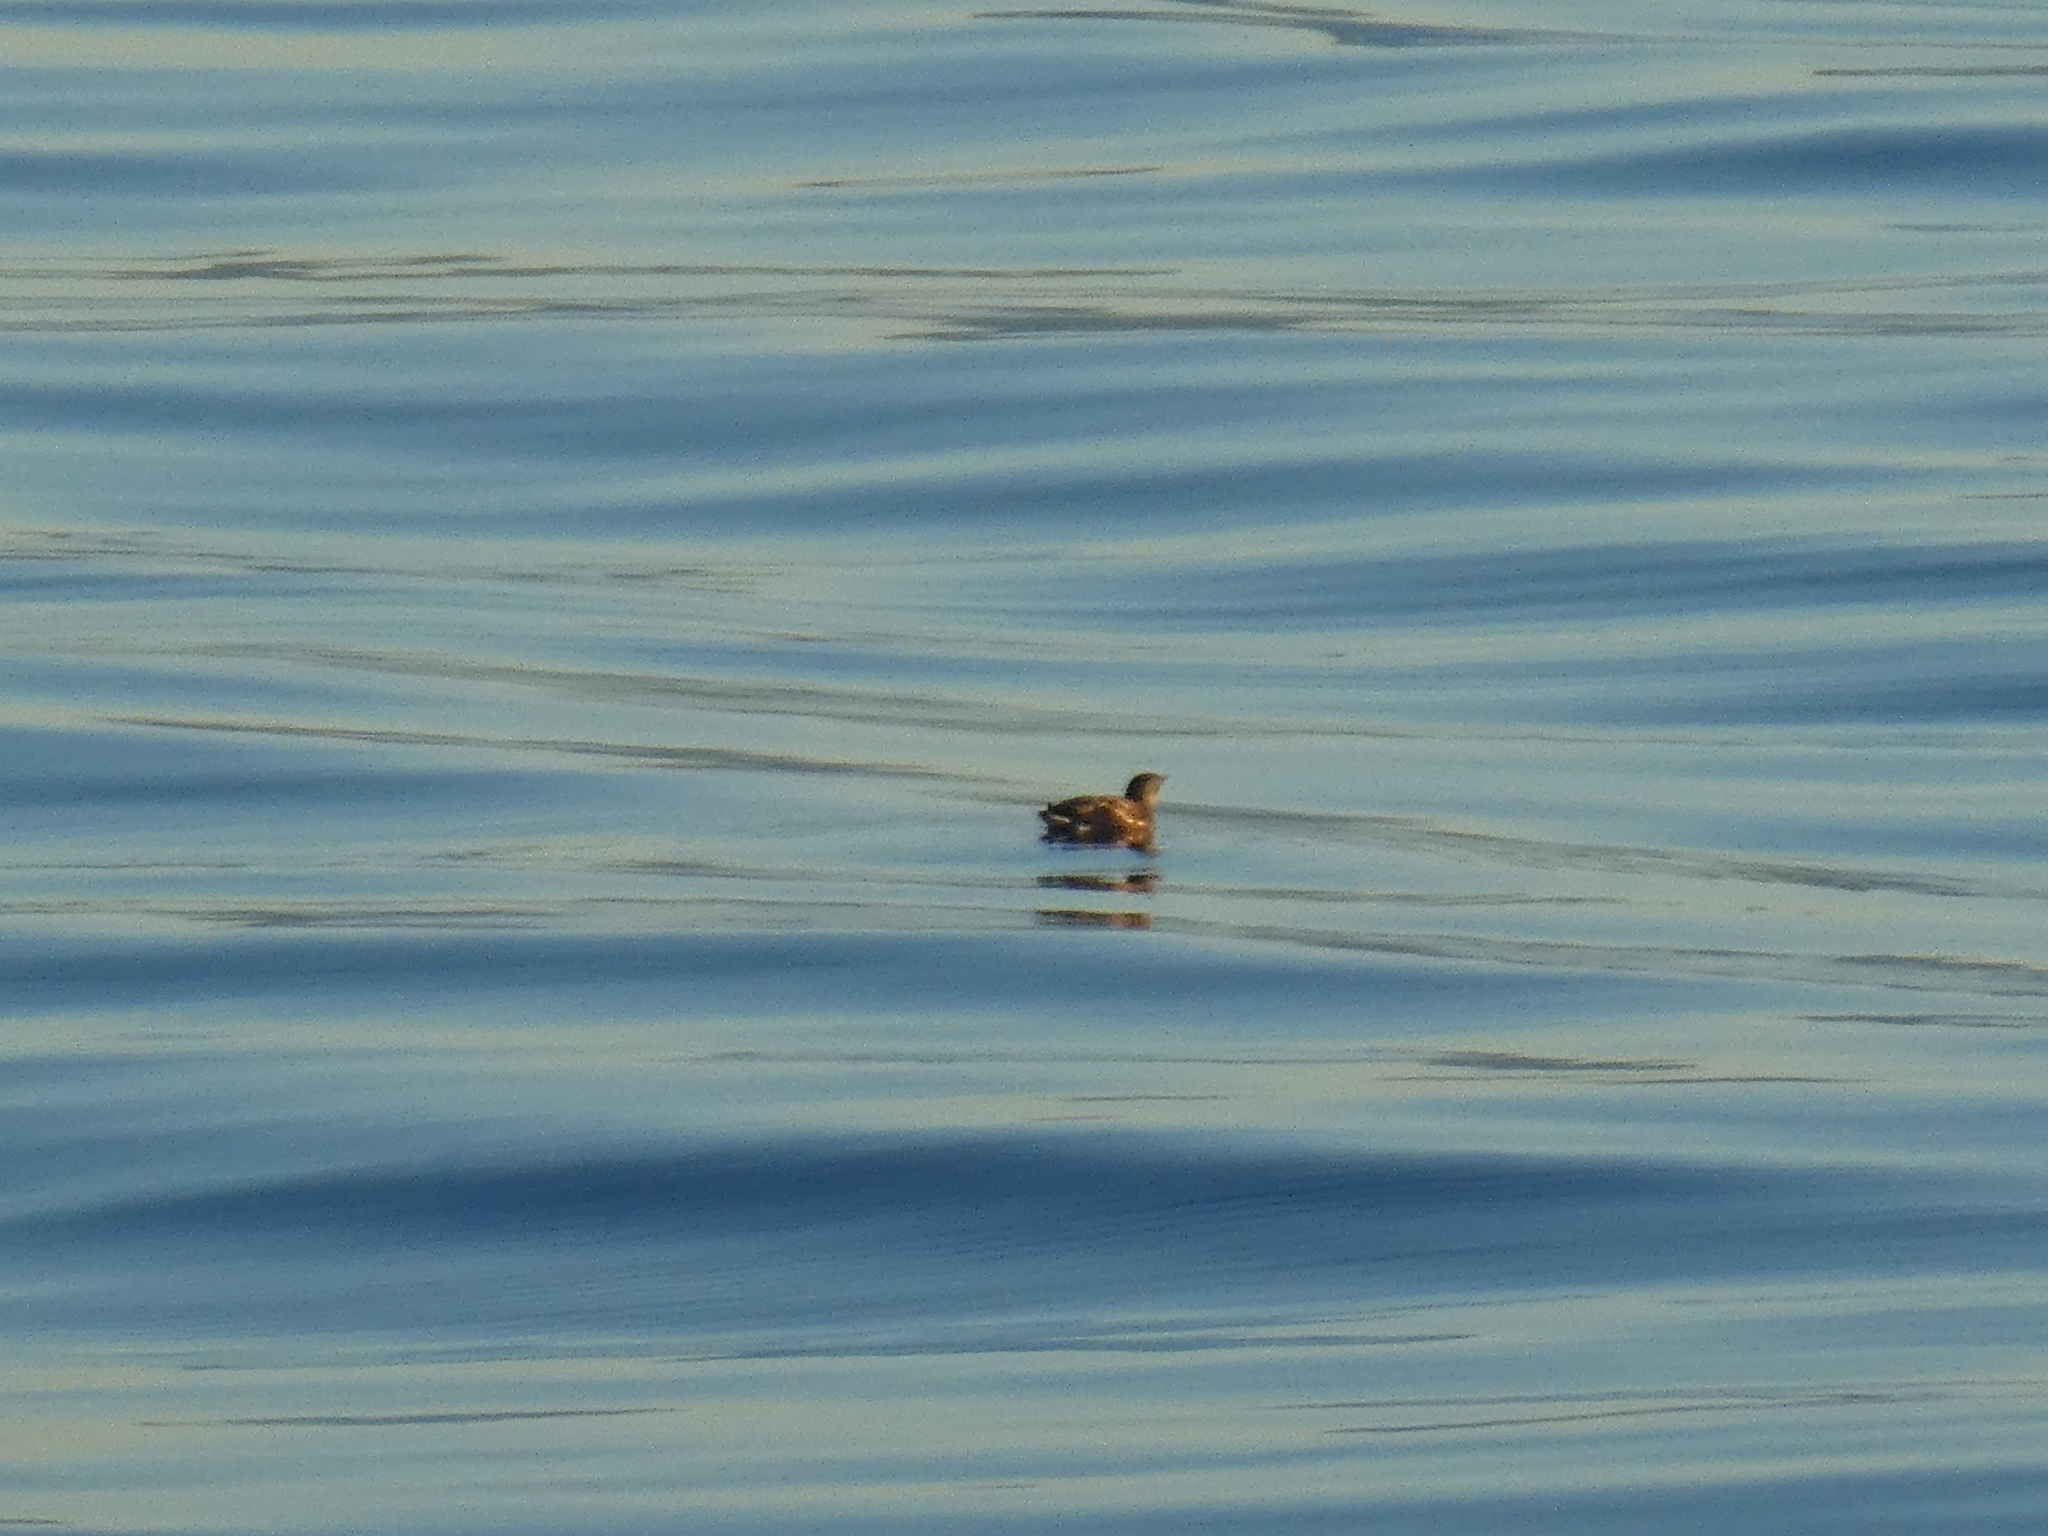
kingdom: Animalia
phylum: Chordata
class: Aves
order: Charadriiformes
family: Alcidae
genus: Brachyramphus
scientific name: Brachyramphus marmoratus
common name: Marbled murrelet
